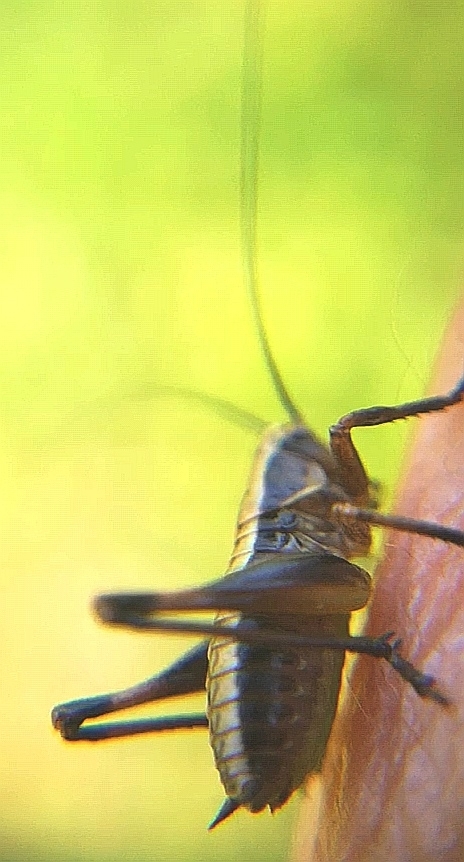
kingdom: Animalia
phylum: Arthropoda
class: Insecta
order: Orthoptera
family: Tettigoniidae
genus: Pholidoptera
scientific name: Pholidoptera griseoaptera
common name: Dark bush-cricket
